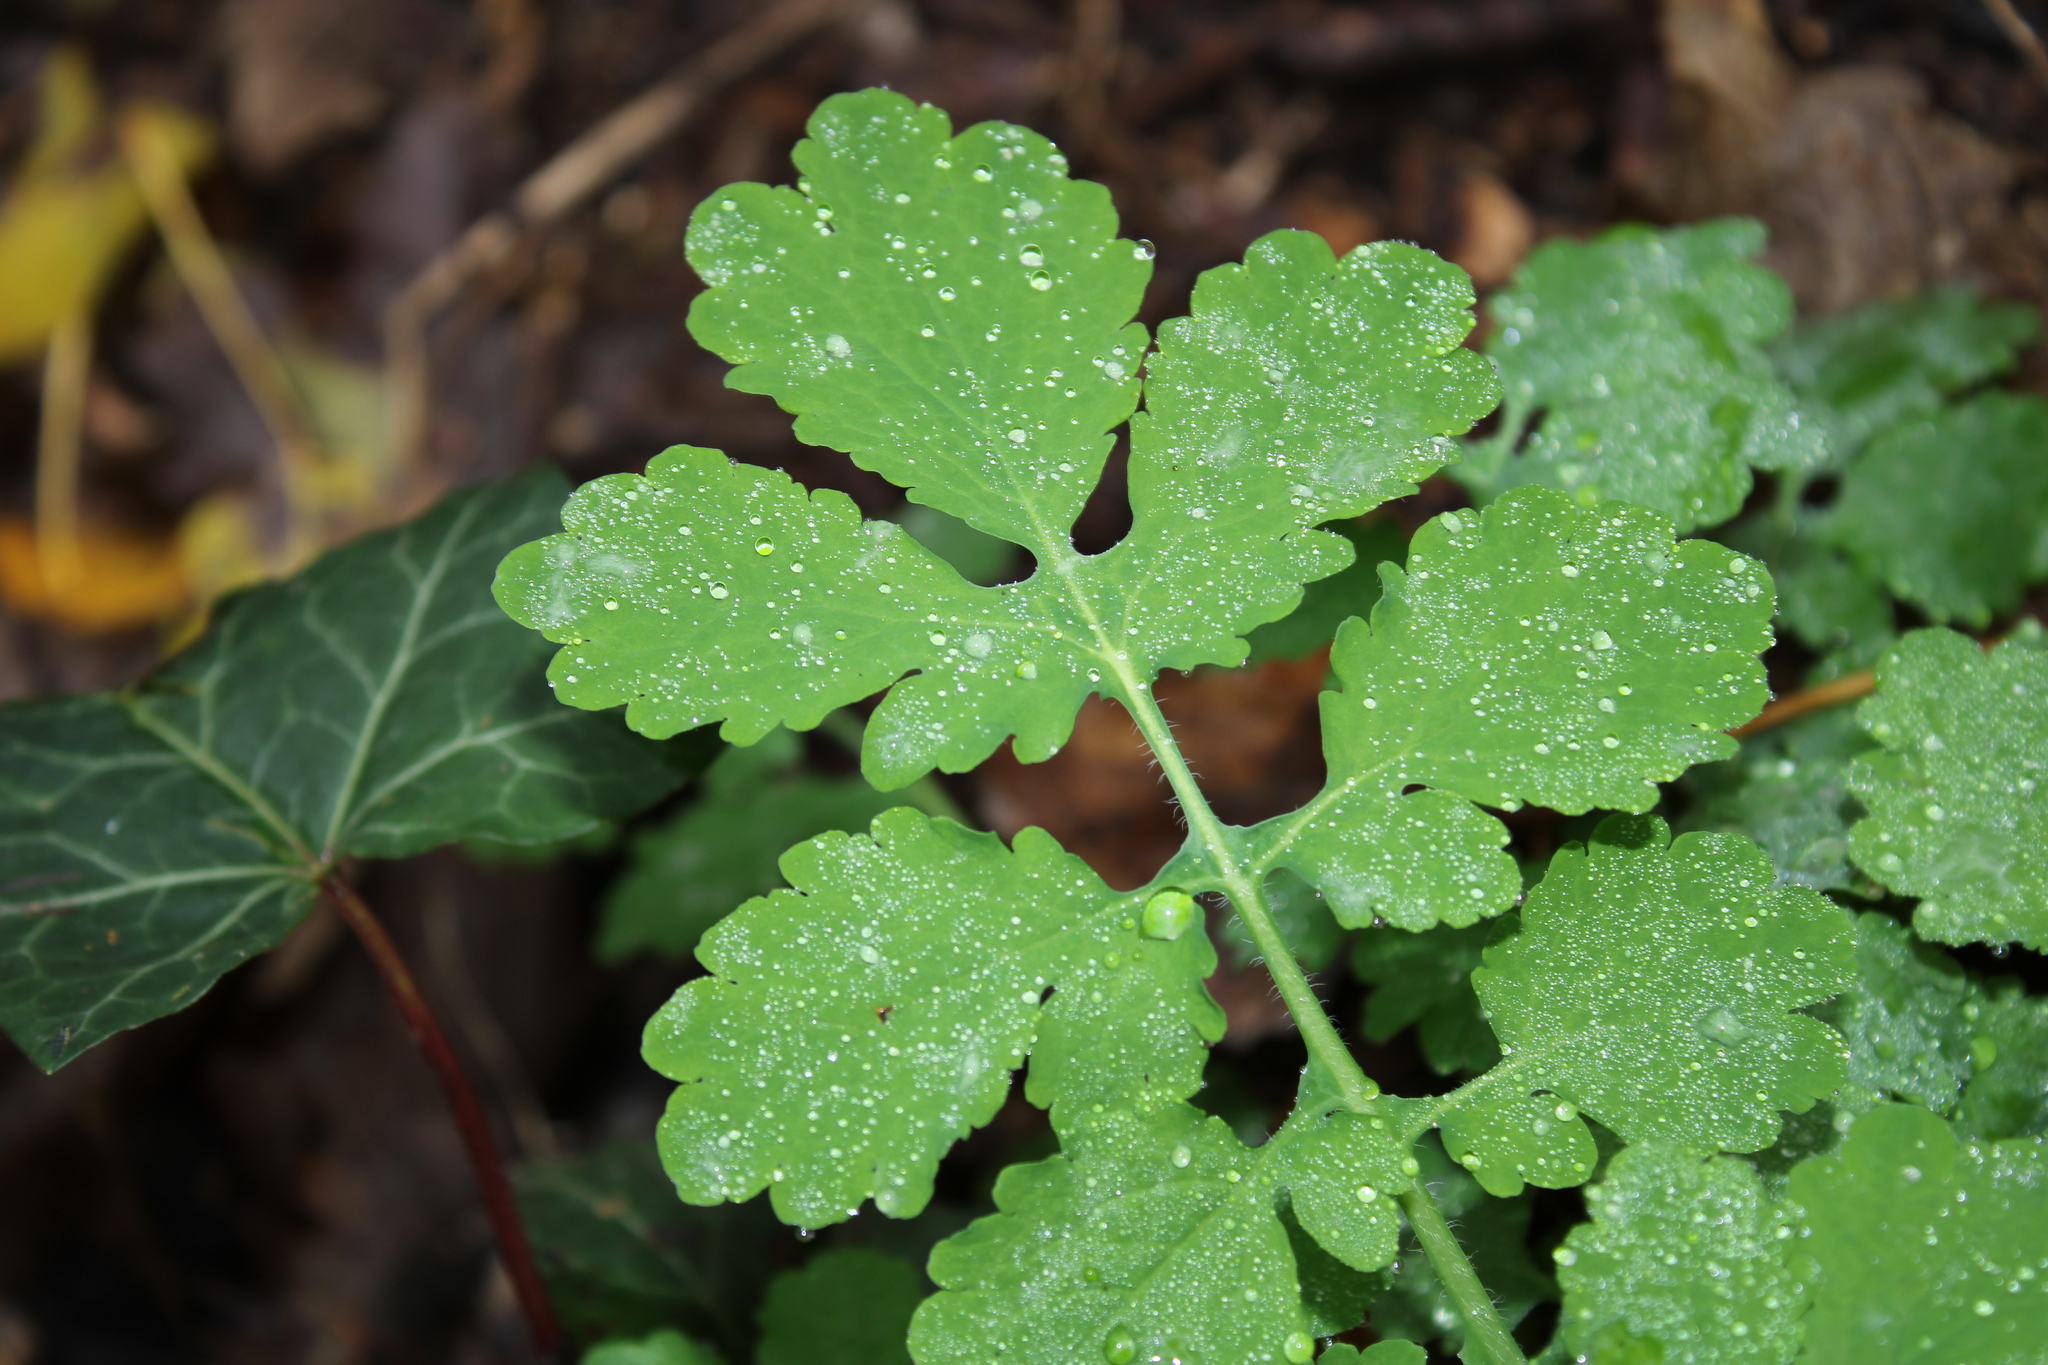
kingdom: Plantae
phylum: Tracheophyta
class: Magnoliopsida
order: Ranunculales
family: Papaveraceae
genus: Chelidonium
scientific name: Chelidonium majus
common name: Greater celandine
